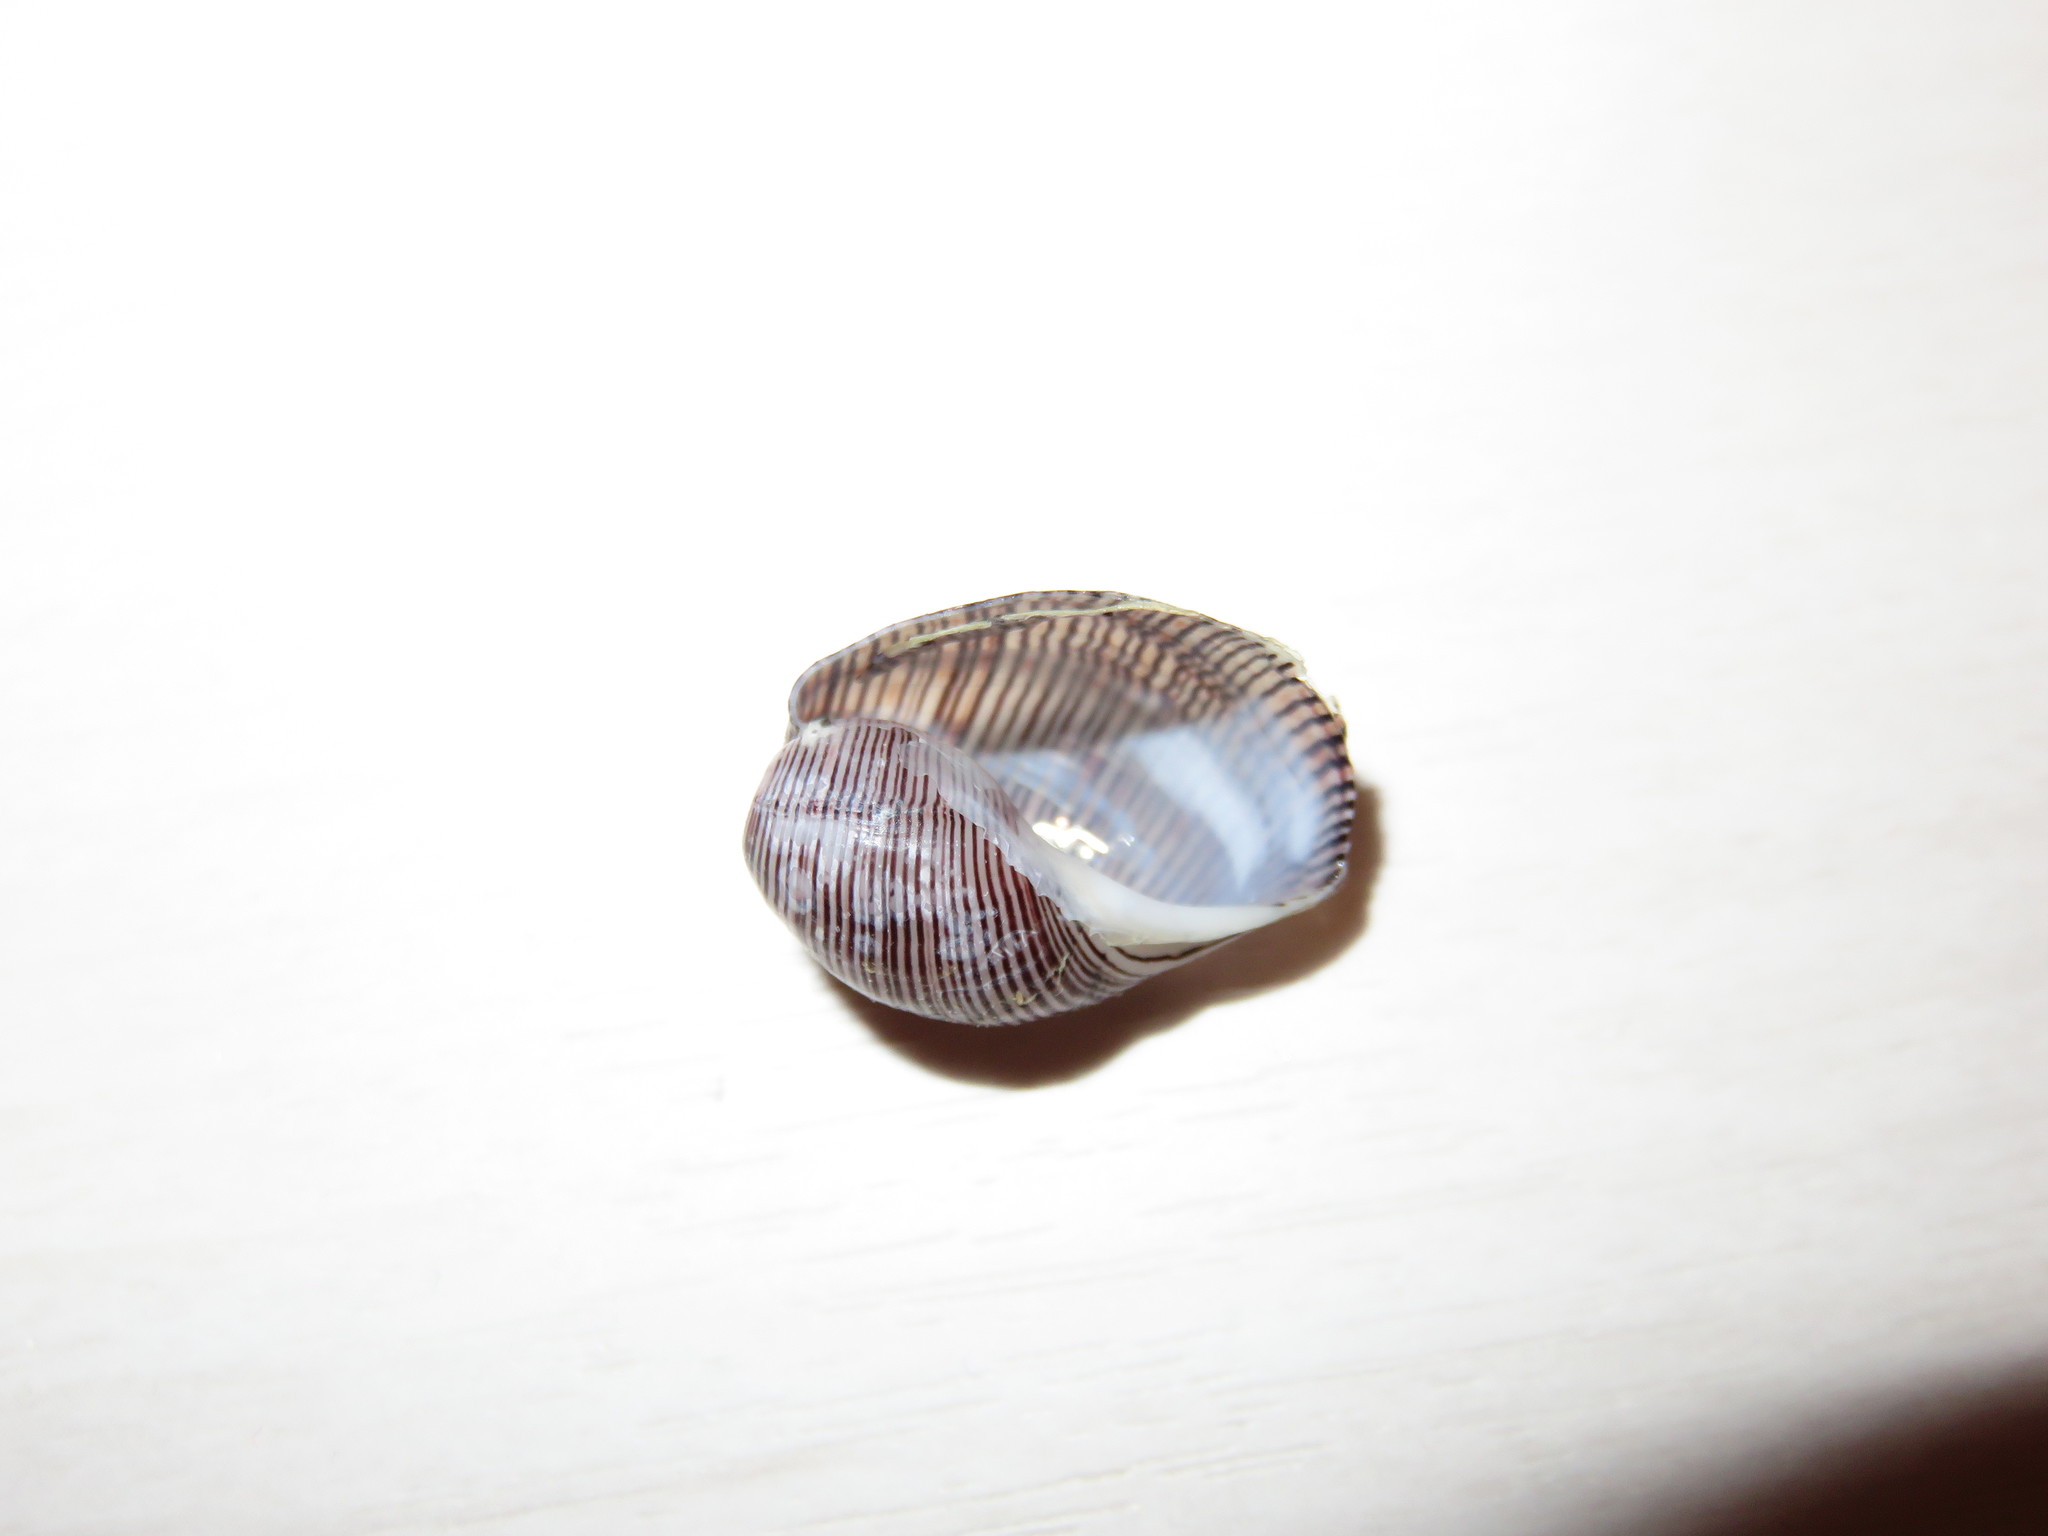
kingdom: Animalia
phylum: Mollusca
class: Gastropoda
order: Cephalaspidea
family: Aplustridae
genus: Hydatina
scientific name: Hydatina physis
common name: Brown-line paperbubble
